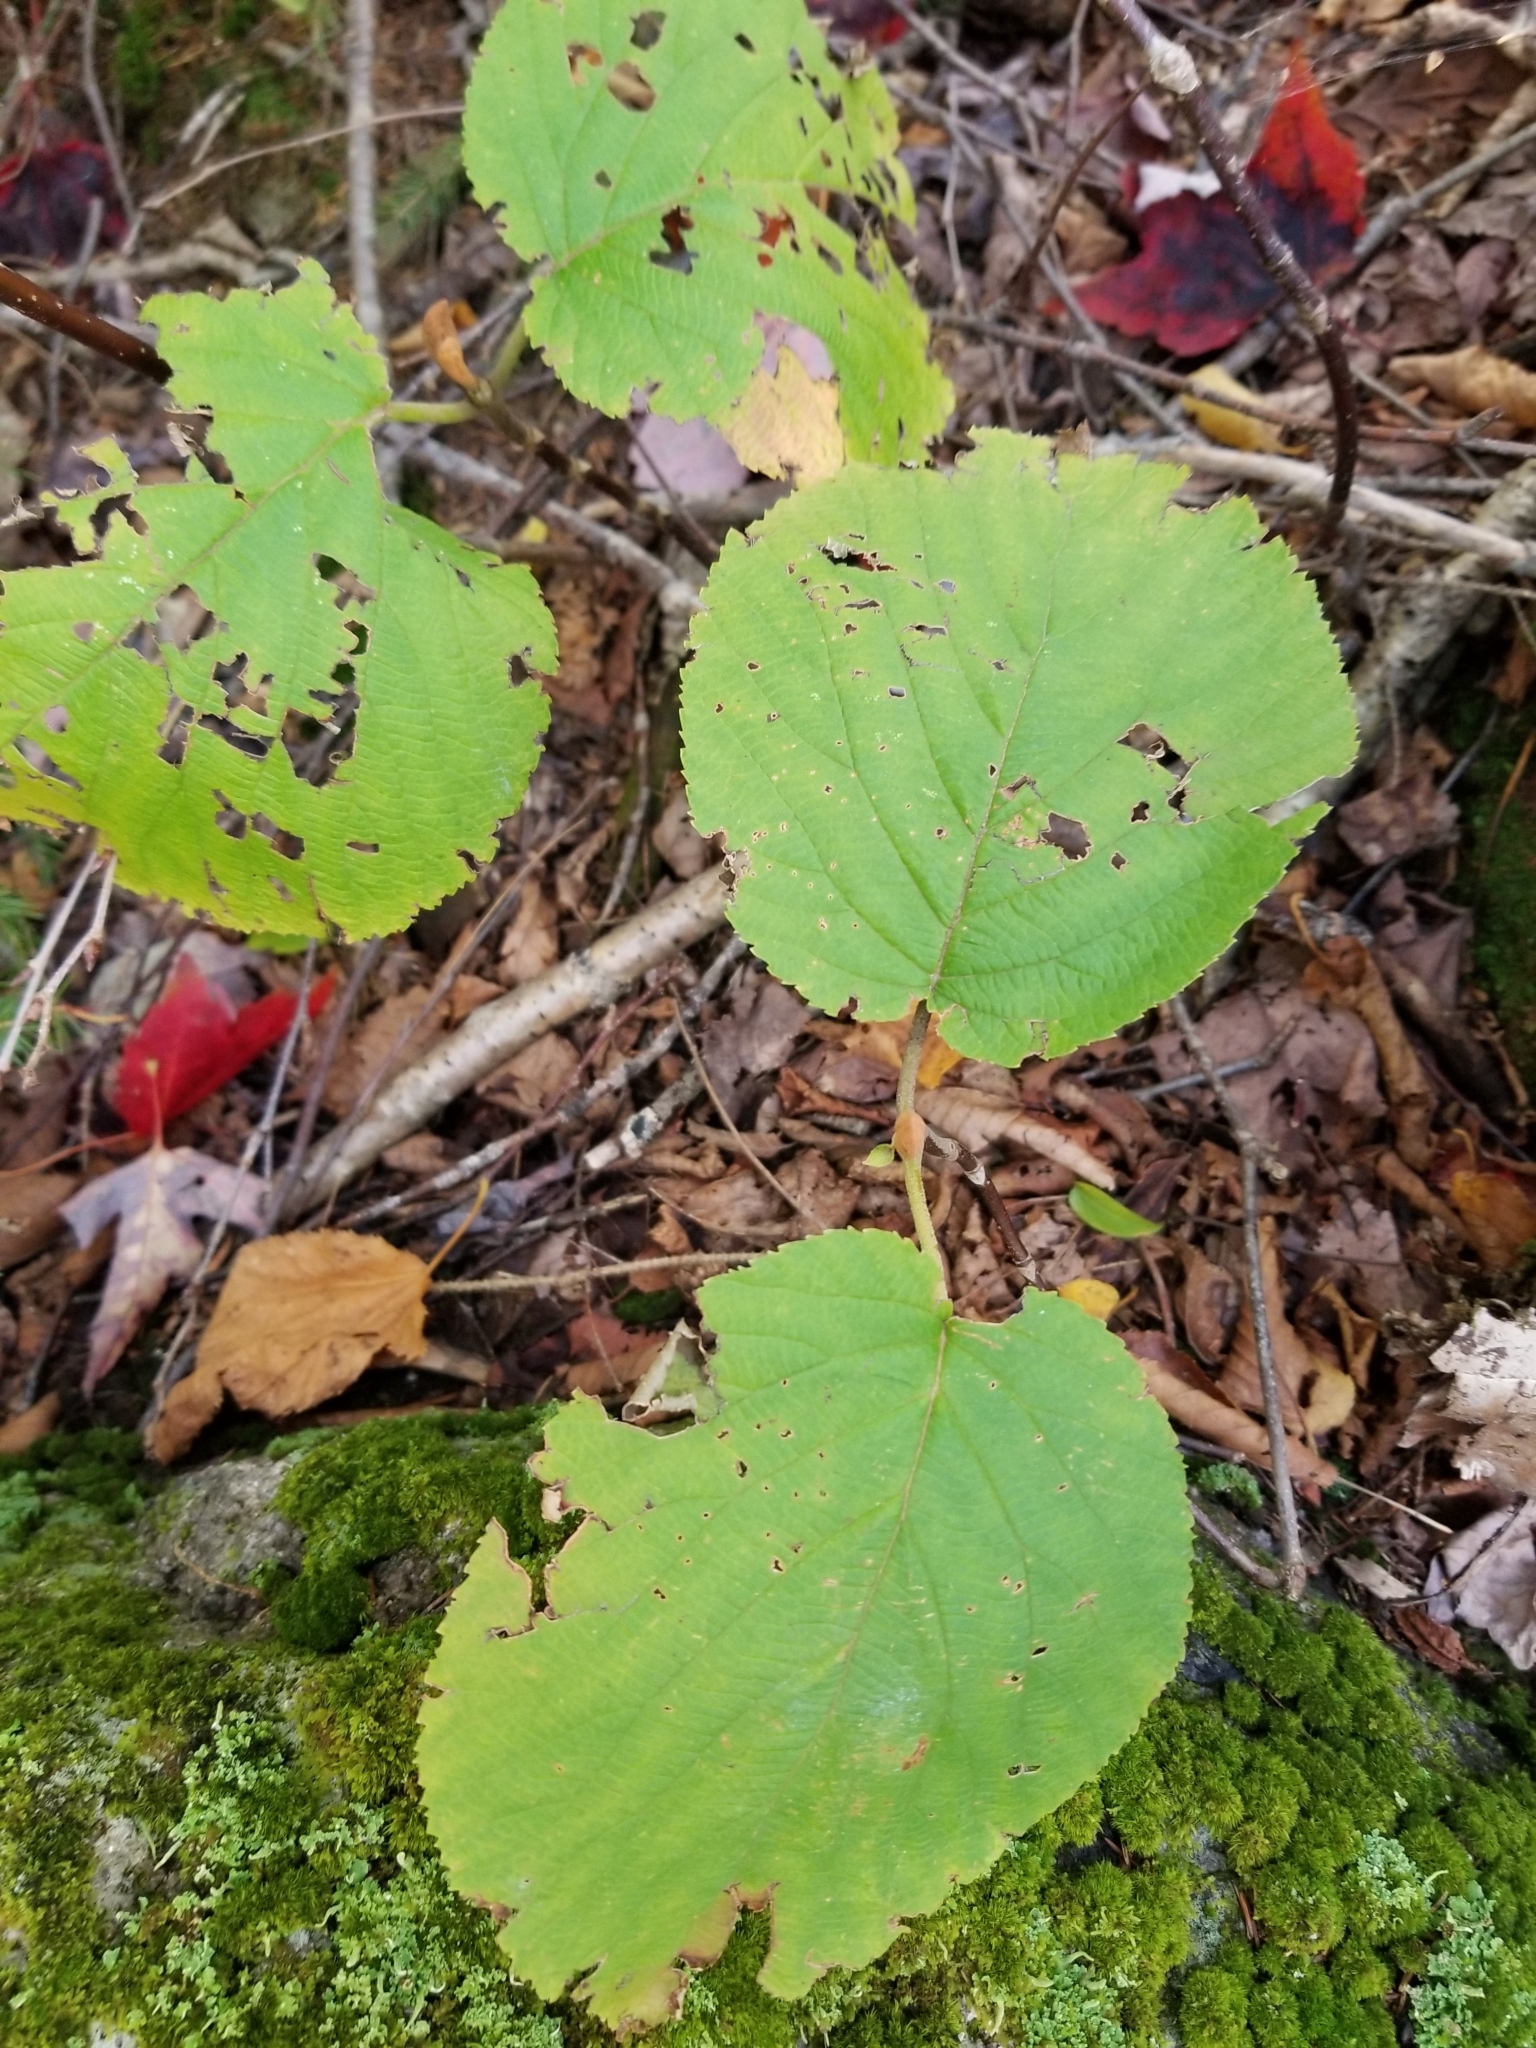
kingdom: Plantae
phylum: Tracheophyta
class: Magnoliopsida
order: Dipsacales
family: Viburnaceae
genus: Viburnum
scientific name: Viburnum lantanoides
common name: Hobblebush
